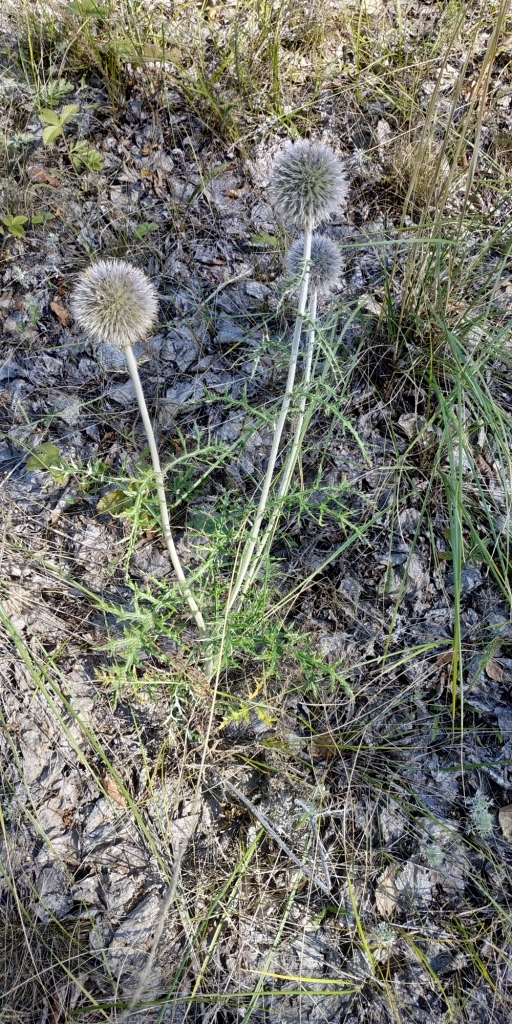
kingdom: Plantae
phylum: Tracheophyta
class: Magnoliopsida
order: Asterales
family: Asteraceae
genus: Echinops
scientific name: Echinops ritro
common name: Globe thistle
